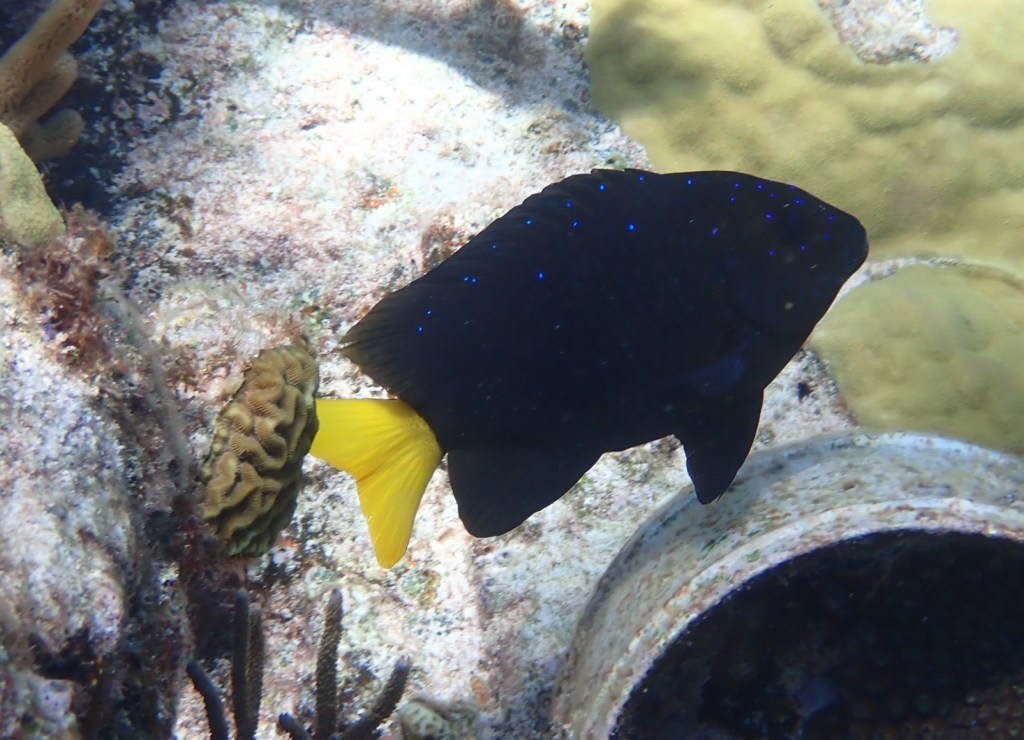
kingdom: Animalia
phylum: Chordata
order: Perciformes
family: Pomacentridae
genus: Microspathodon
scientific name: Microspathodon chrysurus
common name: Yellowtail damselfish
